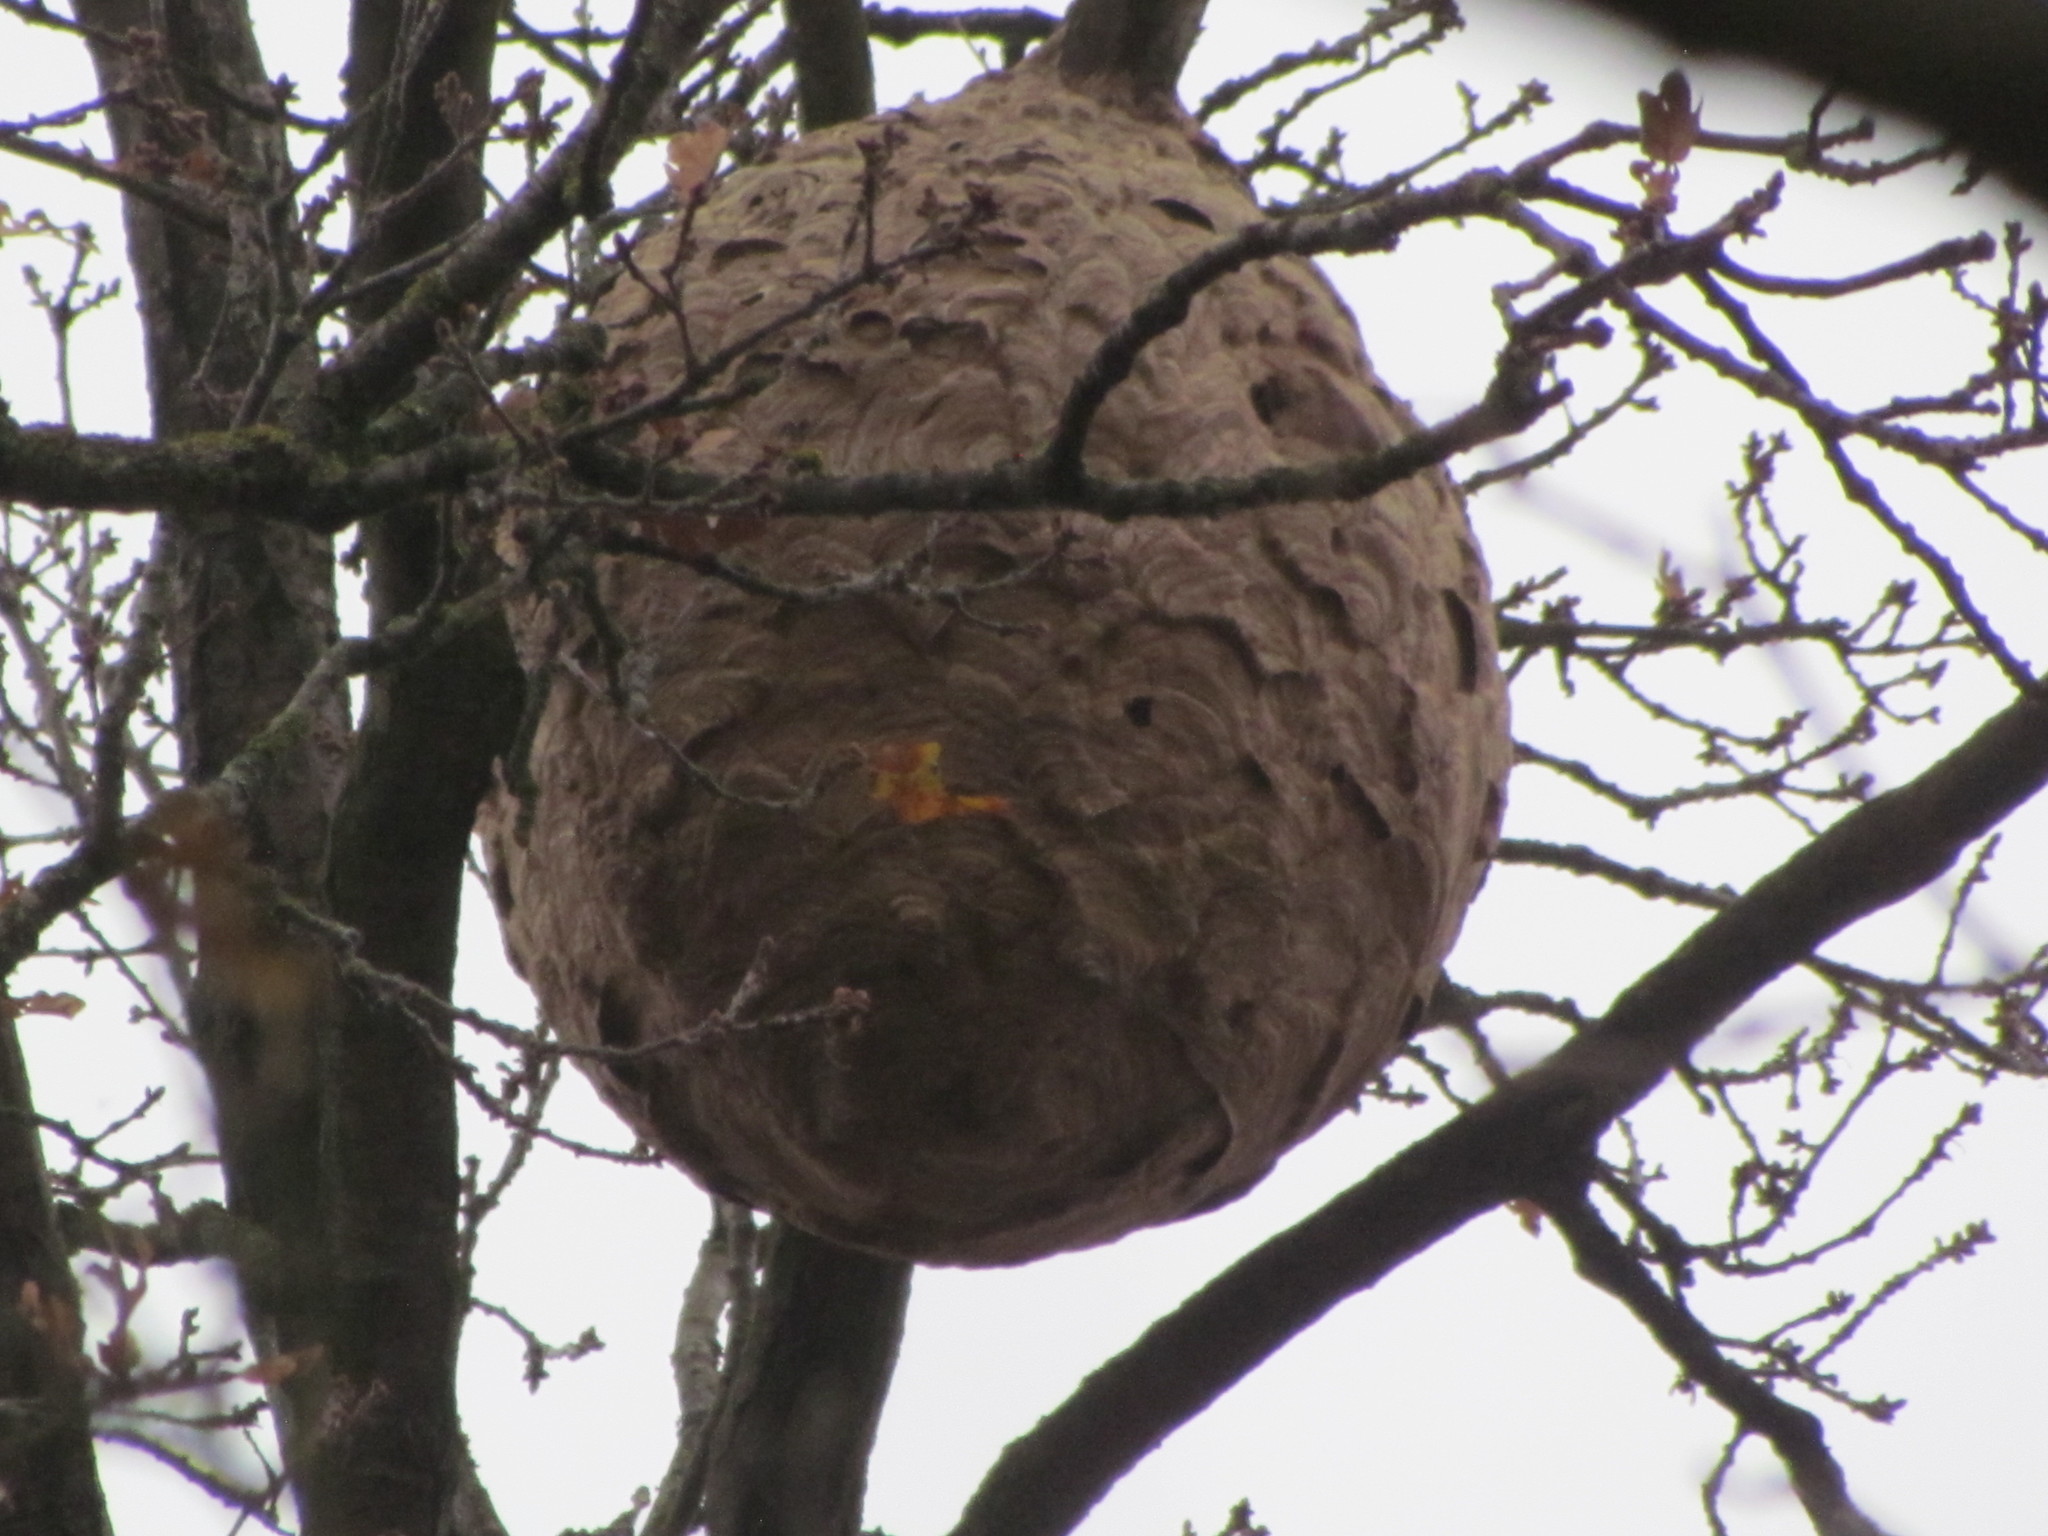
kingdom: Animalia
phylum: Arthropoda
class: Insecta
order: Hymenoptera
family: Vespidae
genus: Vespa
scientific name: Vespa velutina
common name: Asian hornet
